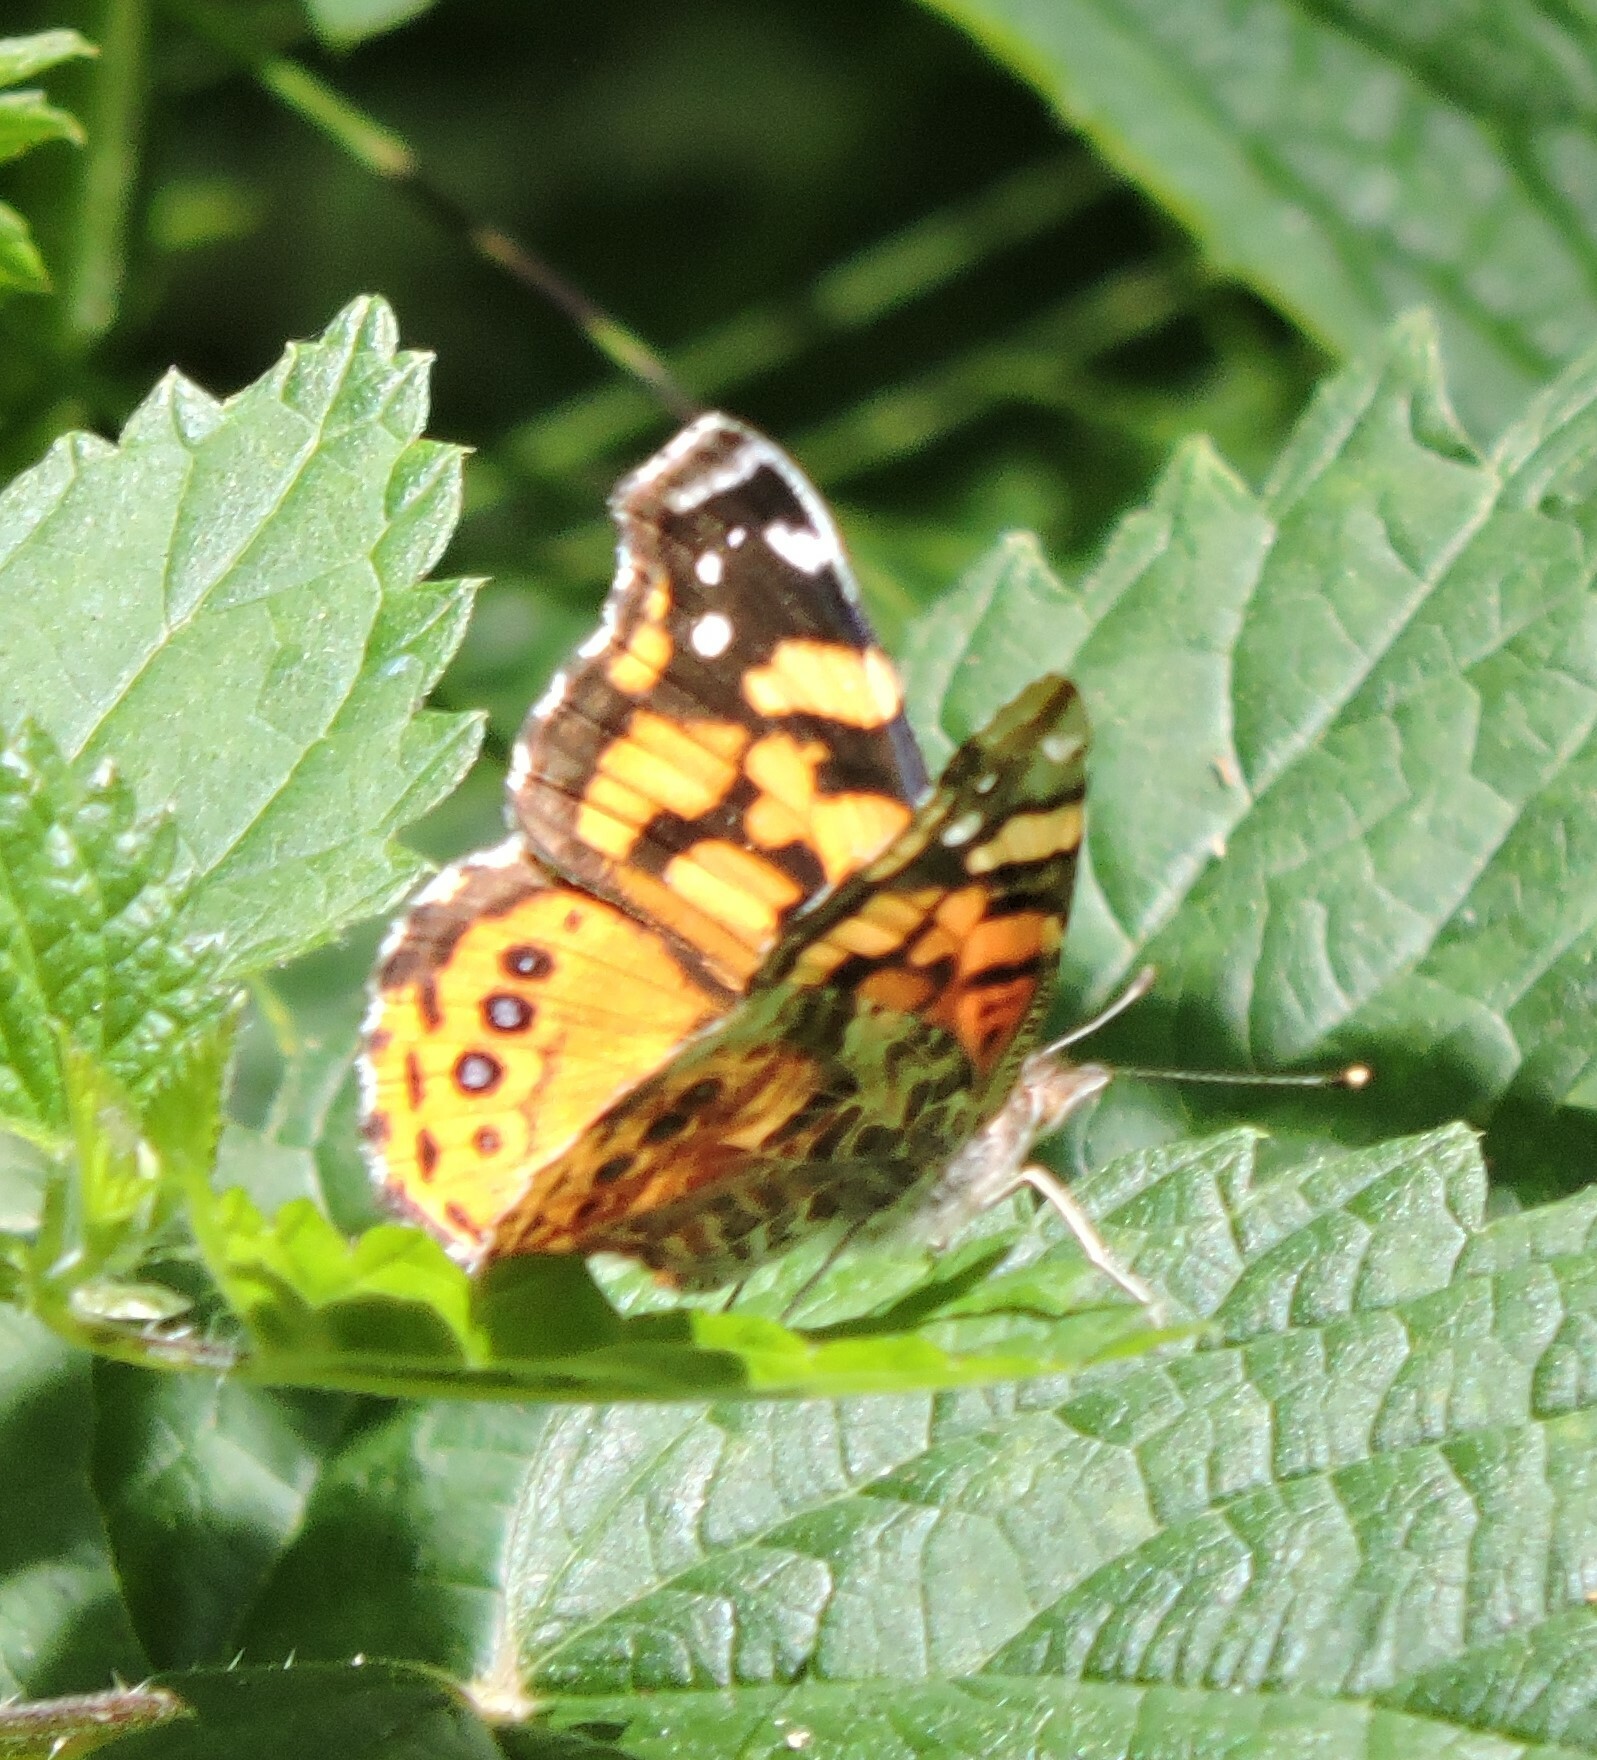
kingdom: Animalia
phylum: Arthropoda
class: Insecta
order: Lepidoptera
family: Nymphalidae
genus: Vanessa
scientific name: Vanessa annabella
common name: West coast lady
